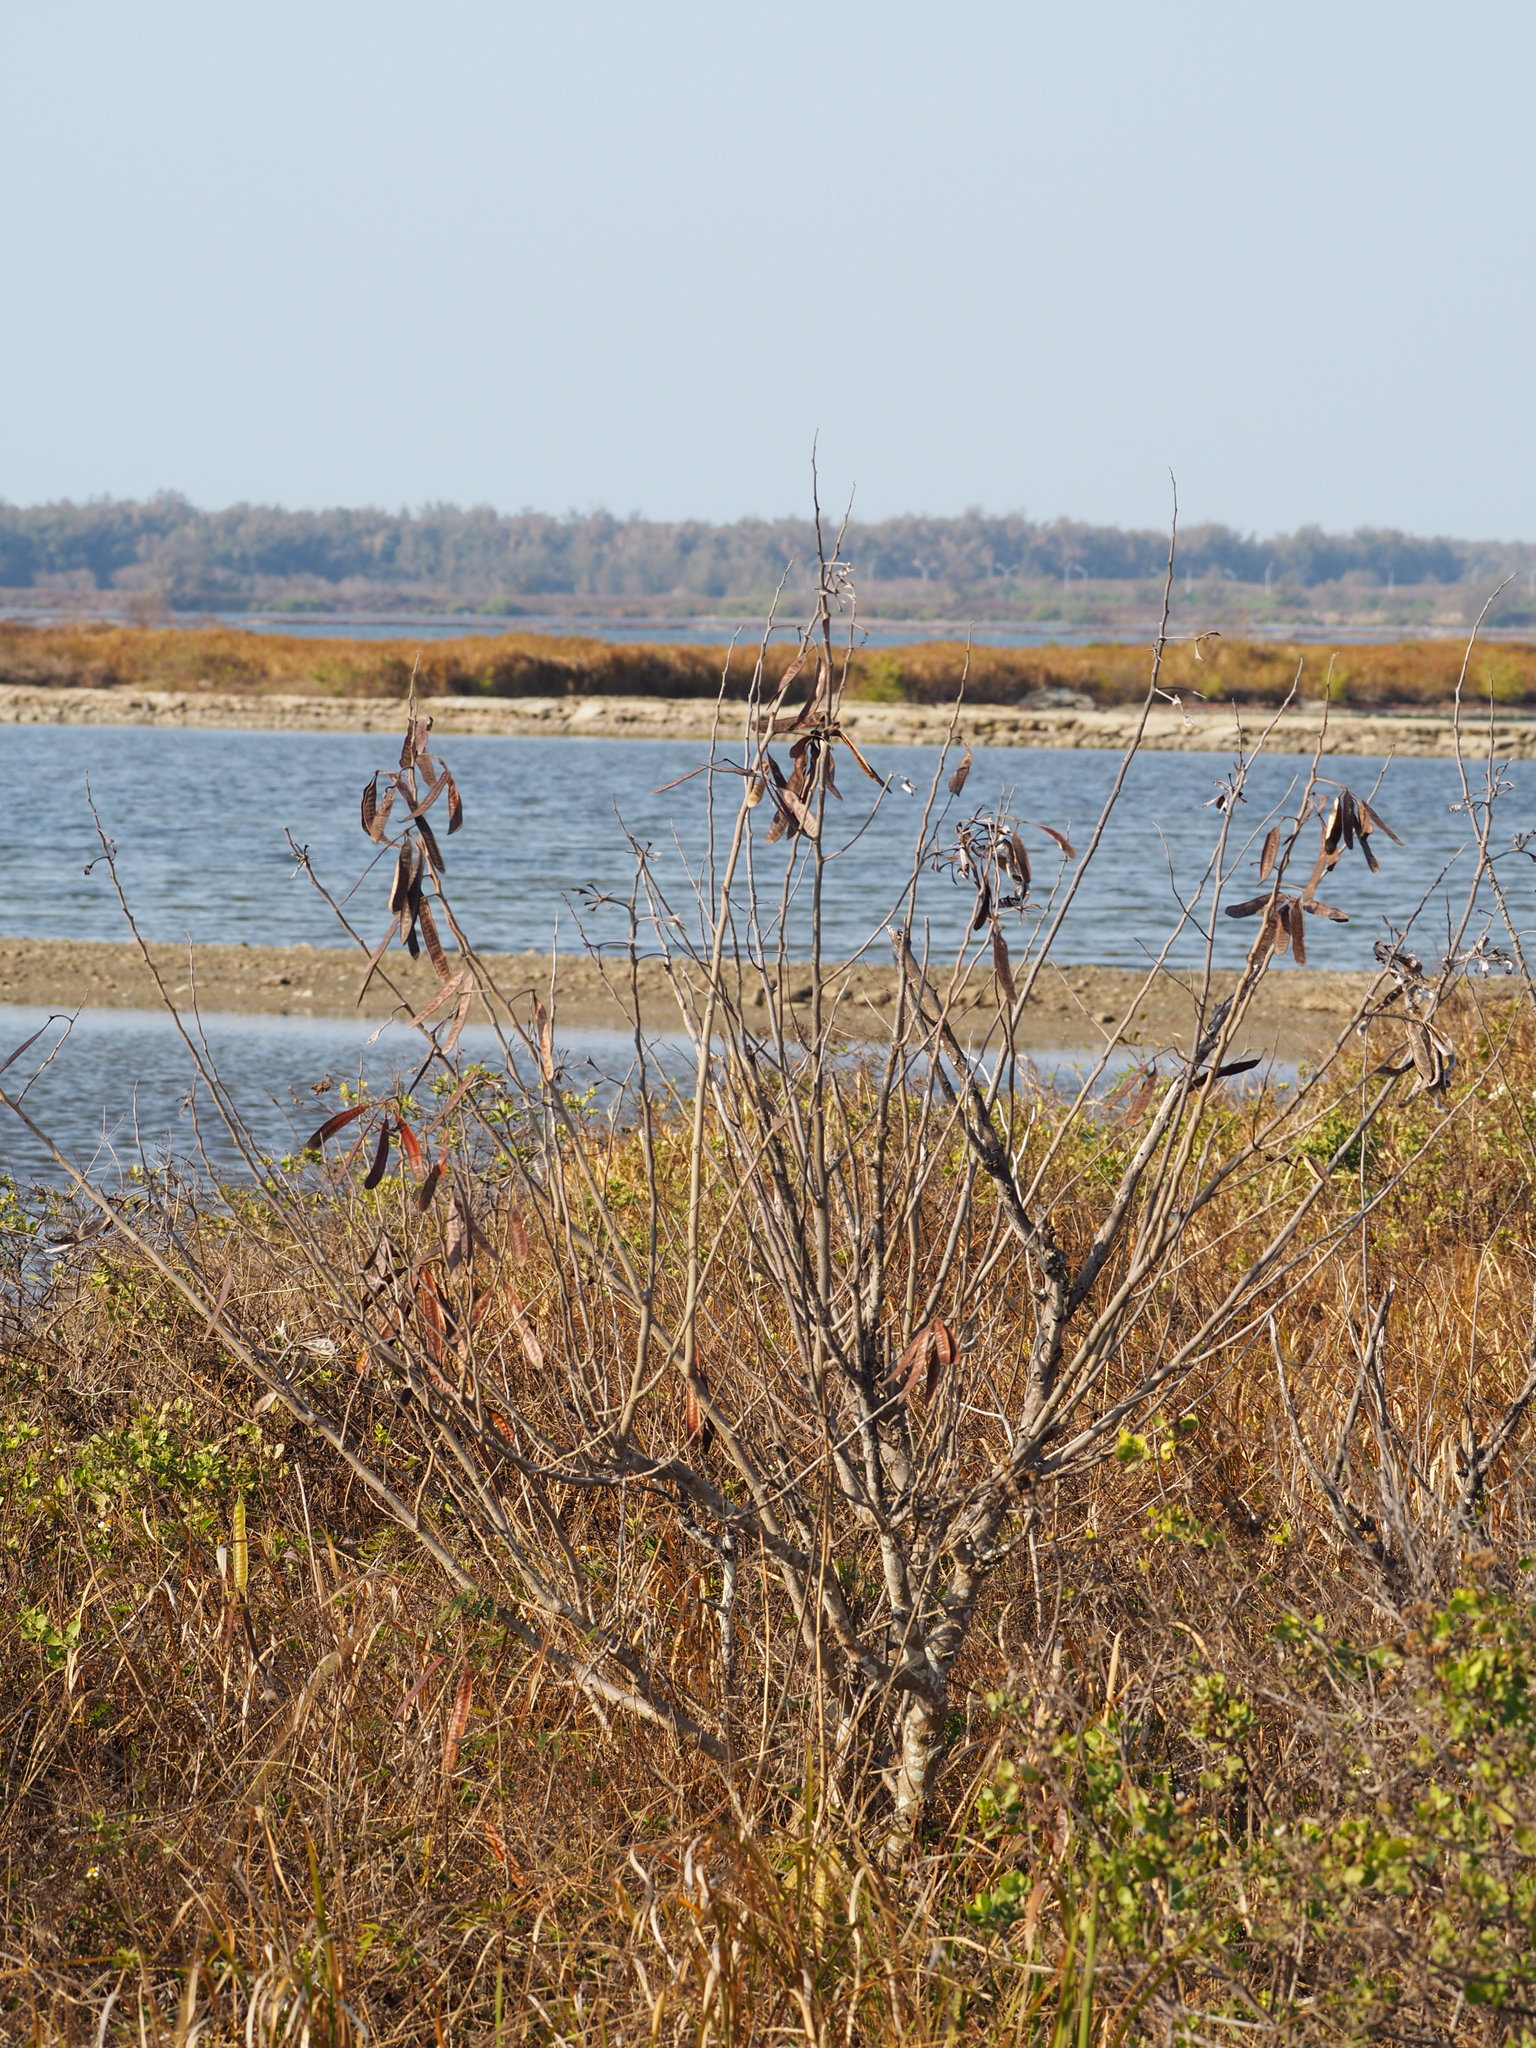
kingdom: Plantae
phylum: Tracheophyta
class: Magnoliopsida
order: Fabales
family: Fabaceae
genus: Leucaena
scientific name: Leucaena leucocephala
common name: White leadtree
